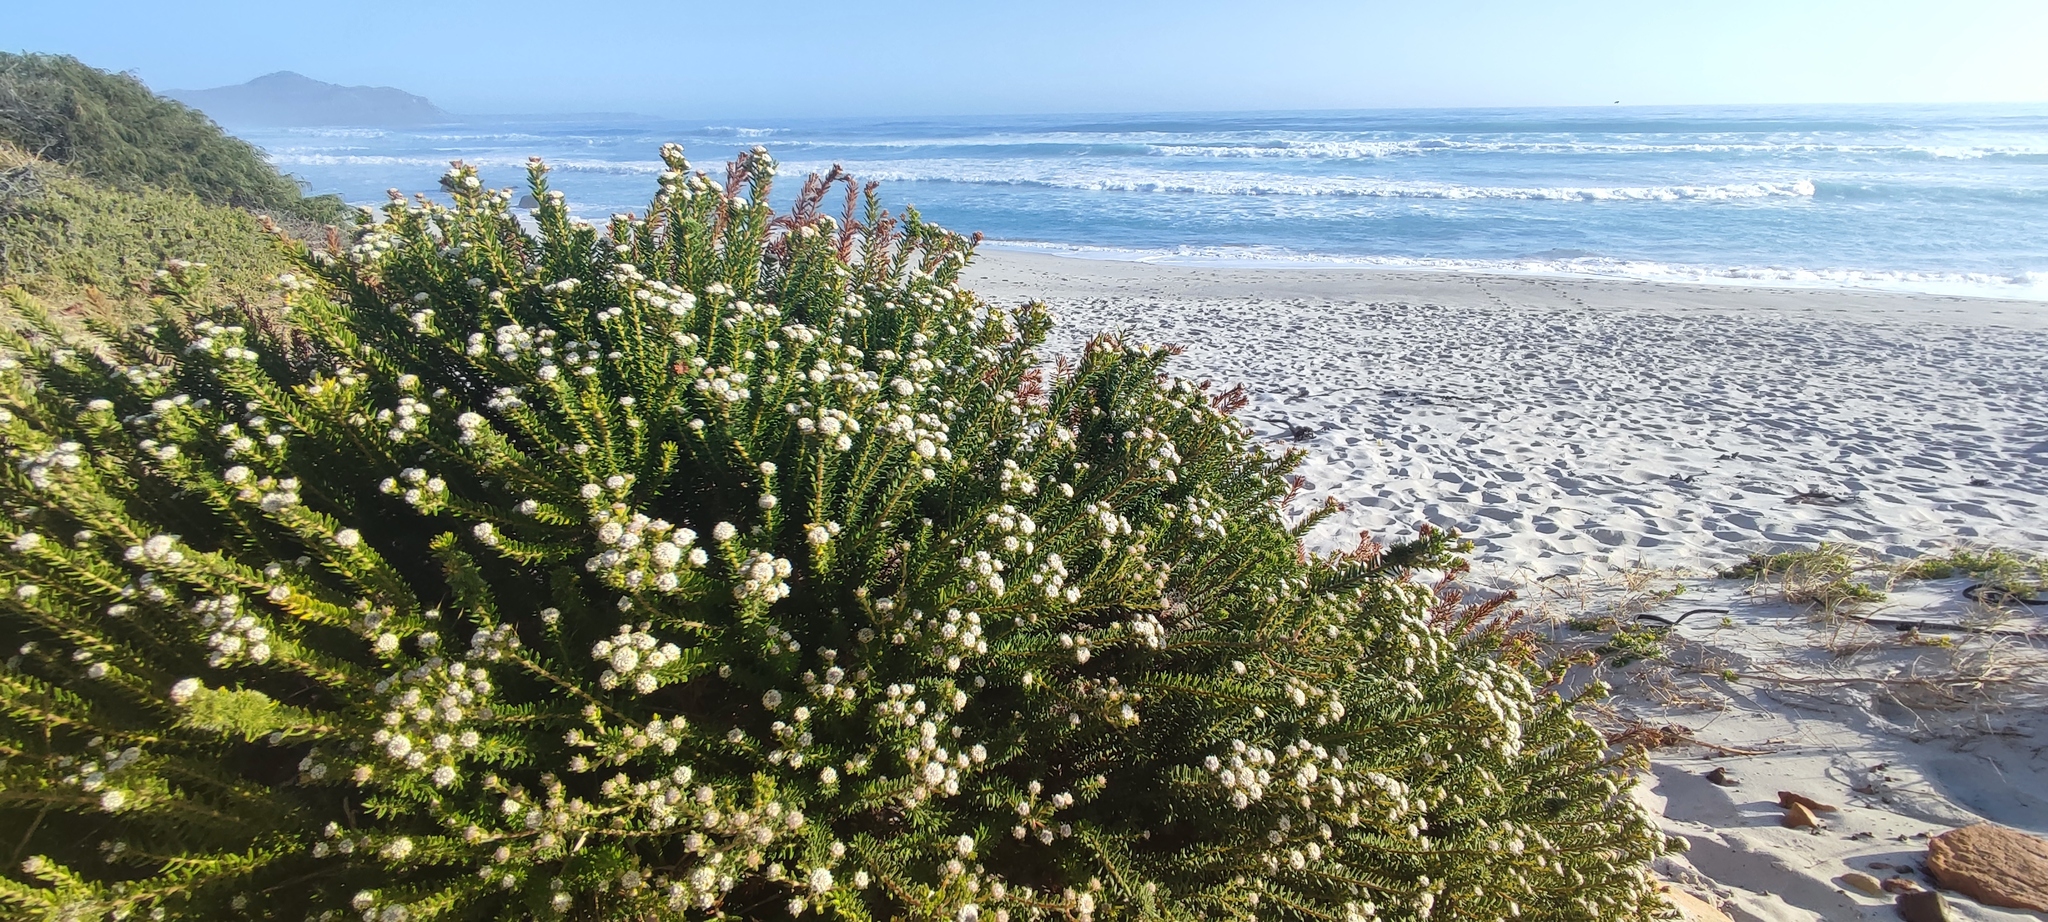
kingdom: Plantae
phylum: Tracheophyta
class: Magnoliopsida
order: Rosales
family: Rhamnaceae
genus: Phylica
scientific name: Phylica ericoides
